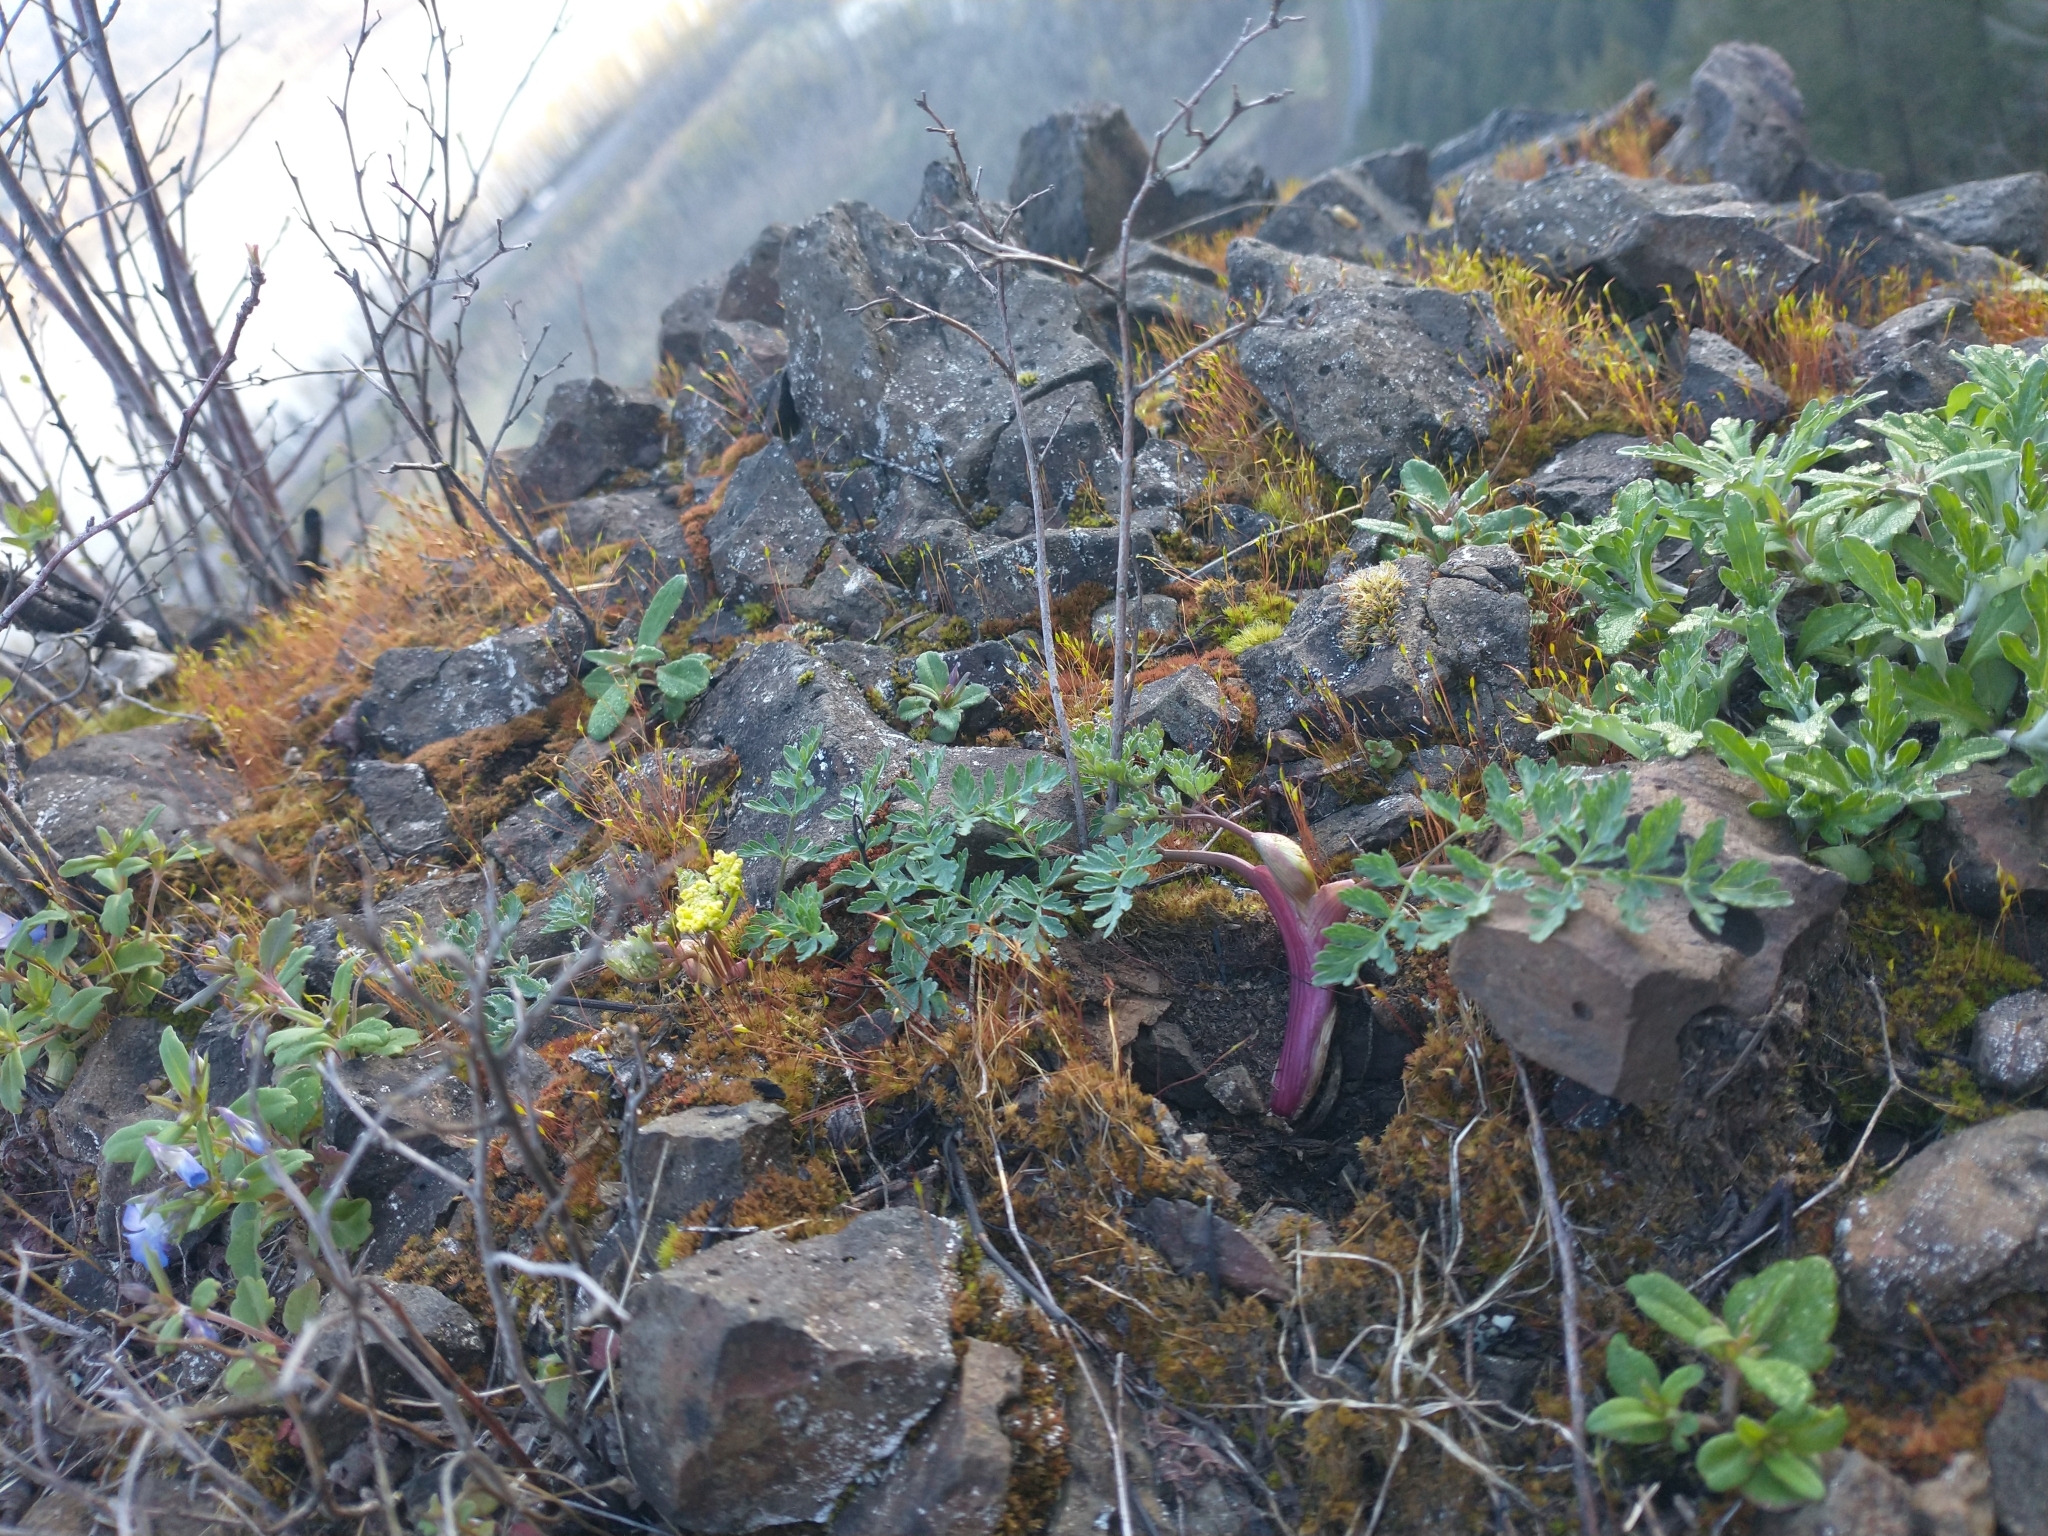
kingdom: Plantae
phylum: Tracheophyta
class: Magnoliopsida
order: Apiales
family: Apiaceae
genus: Lomatium
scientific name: Lomatium martindalei
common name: Cascade desert-parsley
